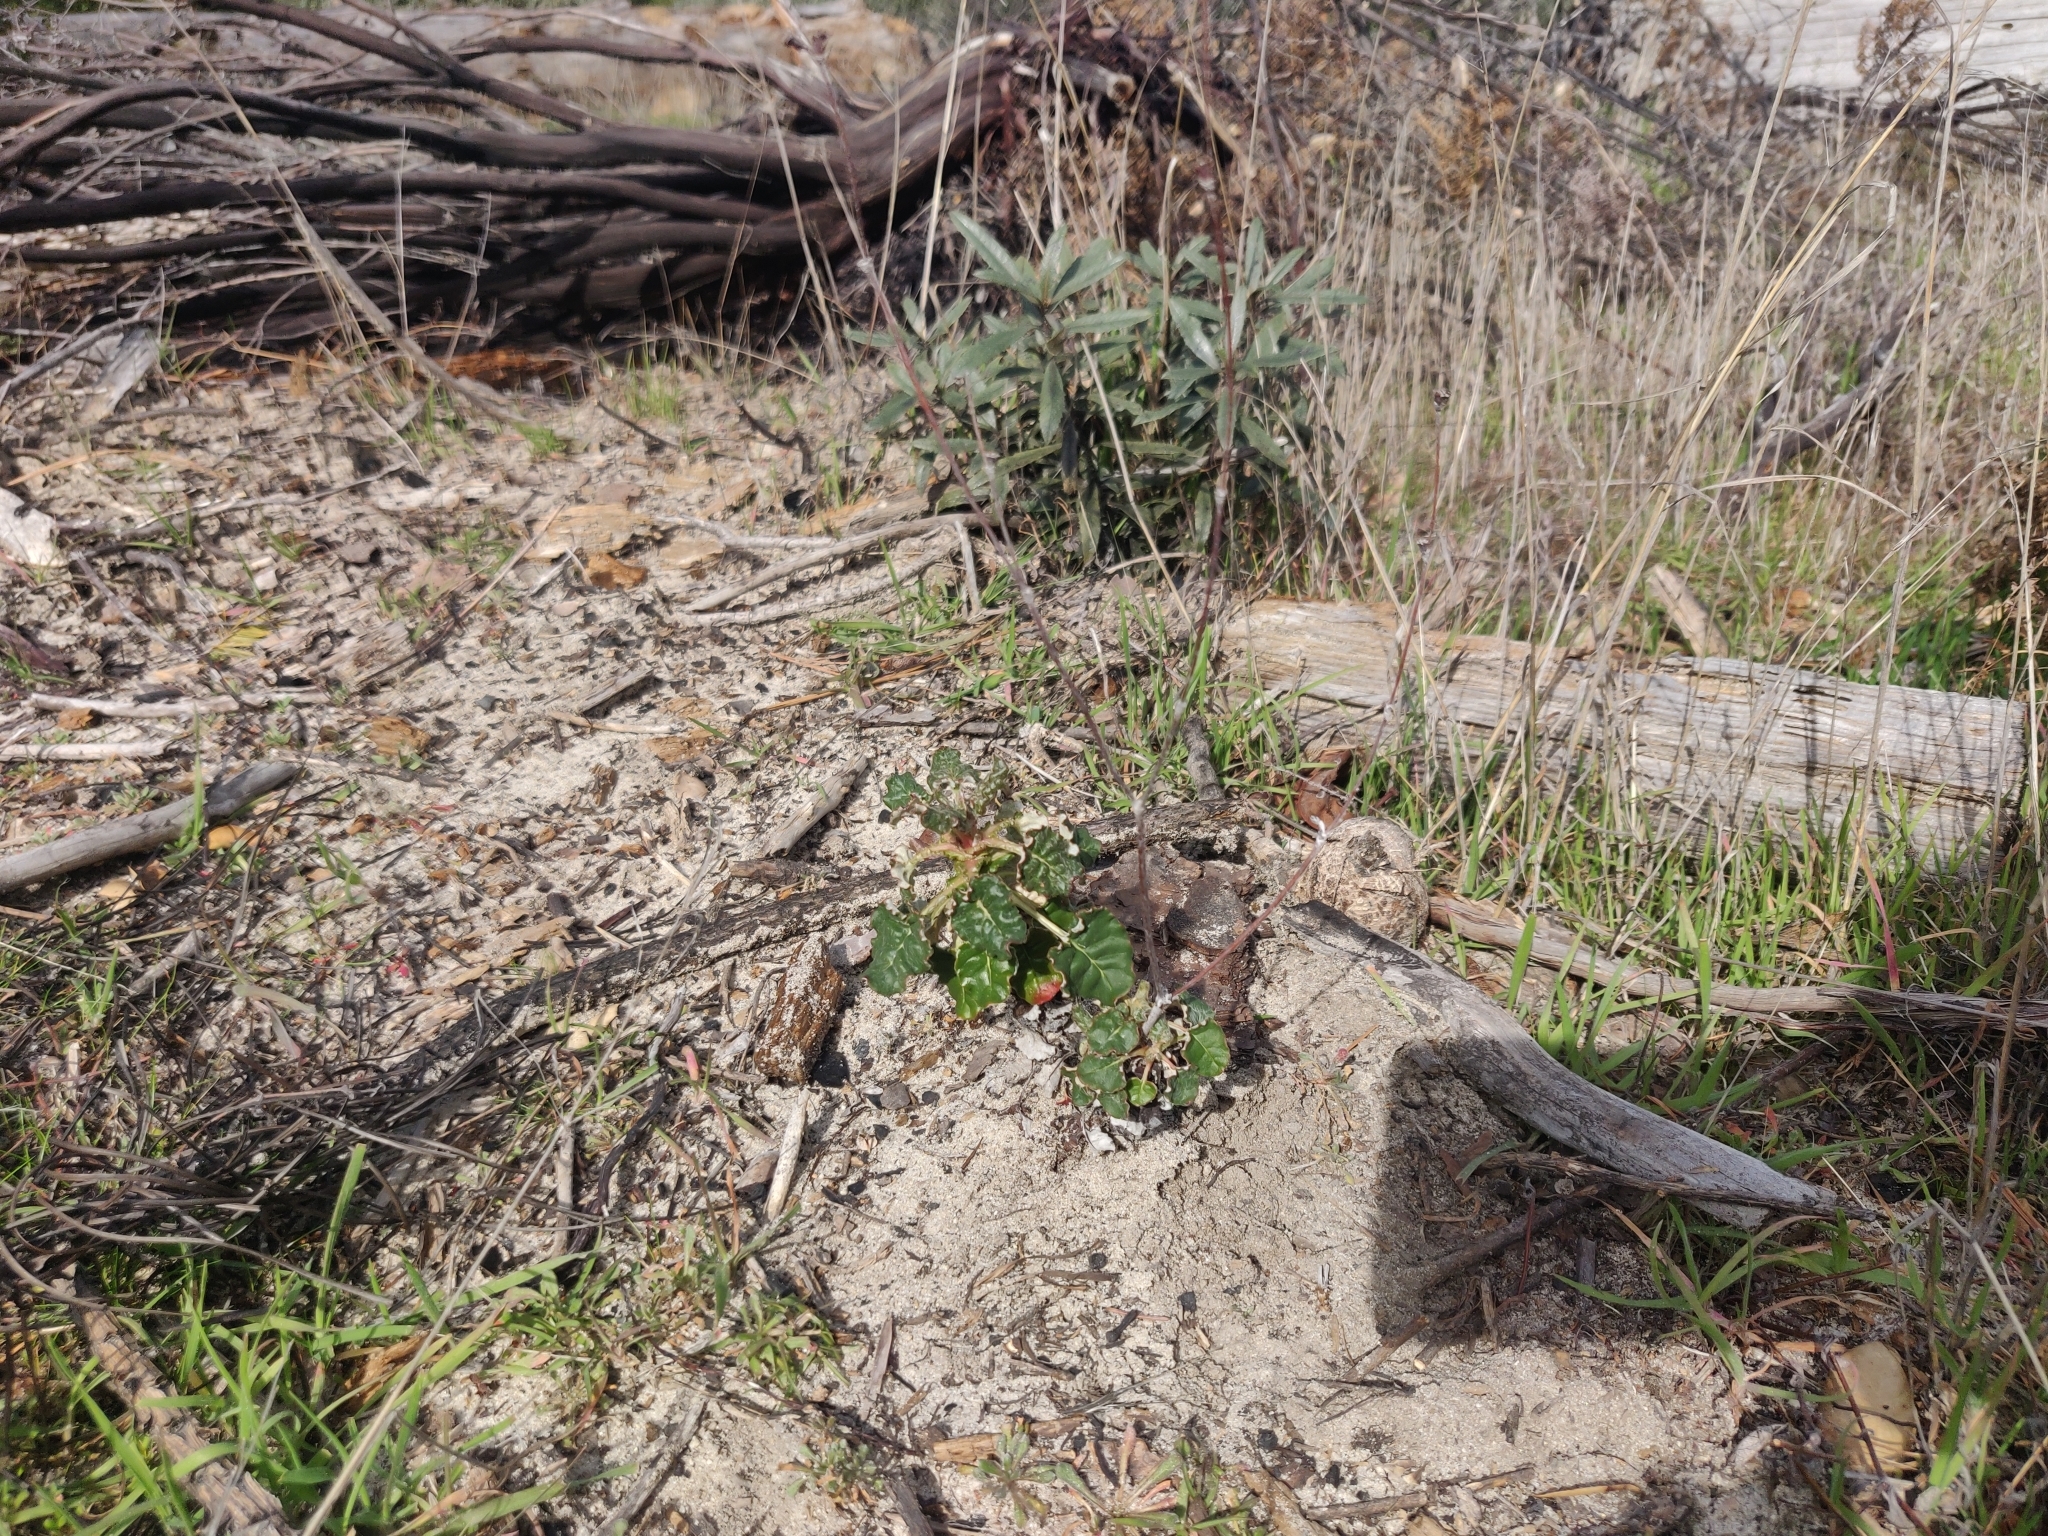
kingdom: Plantae
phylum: Tracheophyta
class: Magnoliopsida
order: Caryophyllales
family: Polygonaceae
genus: Eriogonum
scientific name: Eriogonum nudum
